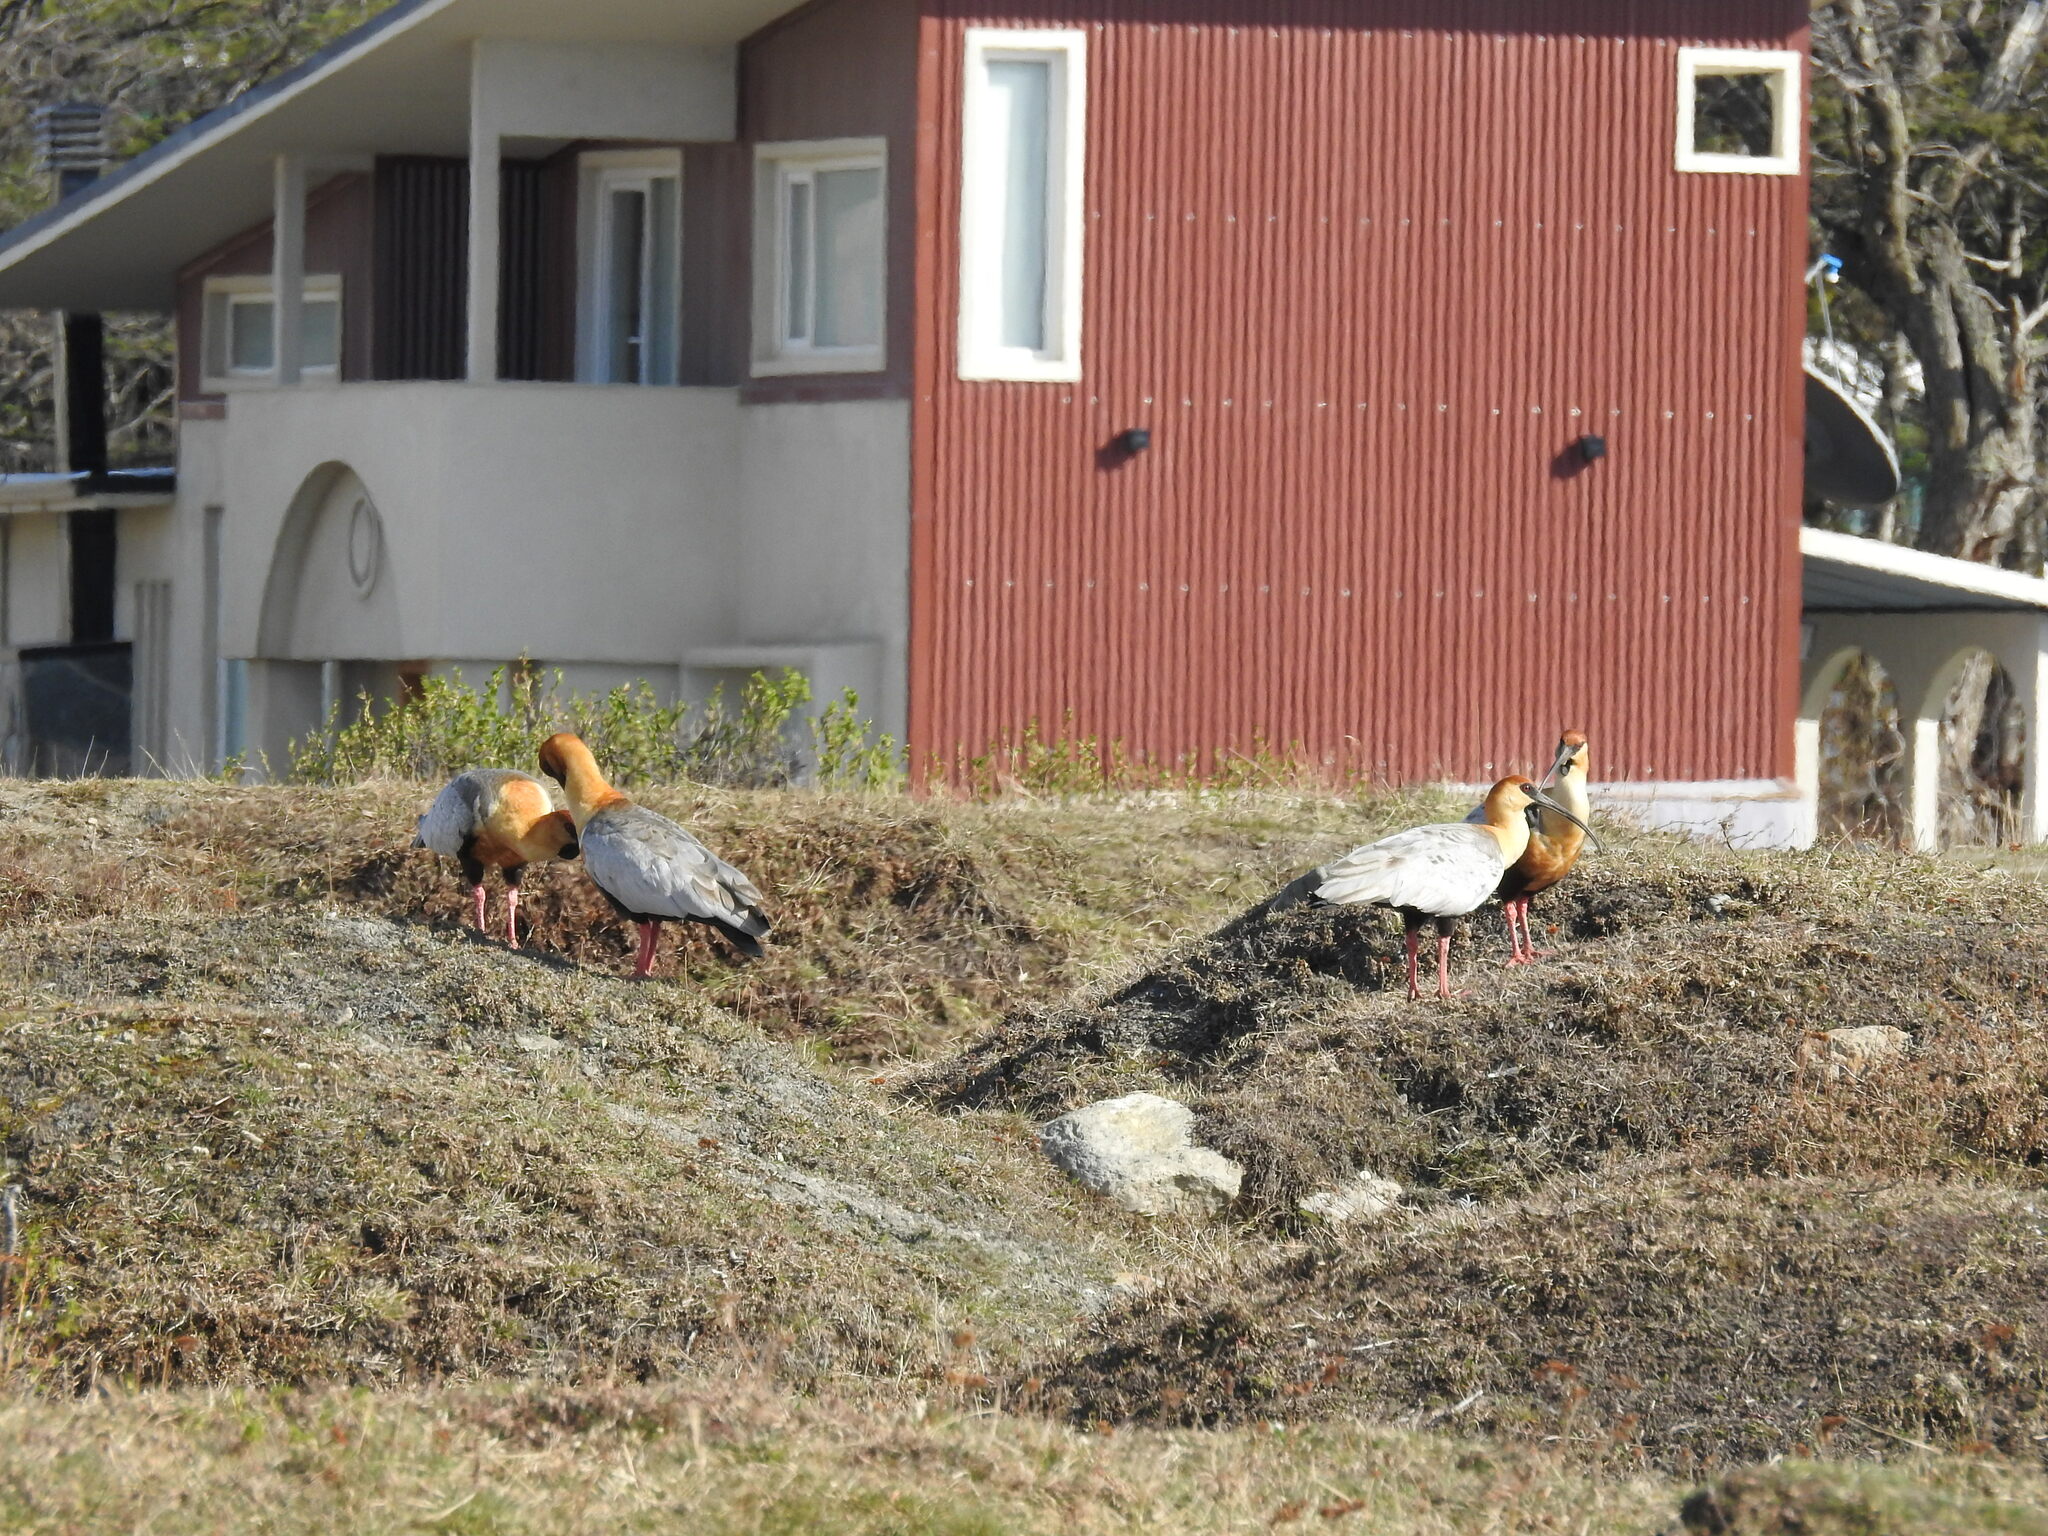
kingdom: Animalia
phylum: Chordata
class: Aves
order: Pelecaniformes
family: Threskiornithidae
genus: Theristicus
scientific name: Theristicus melanopis
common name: Black-faced ibis
